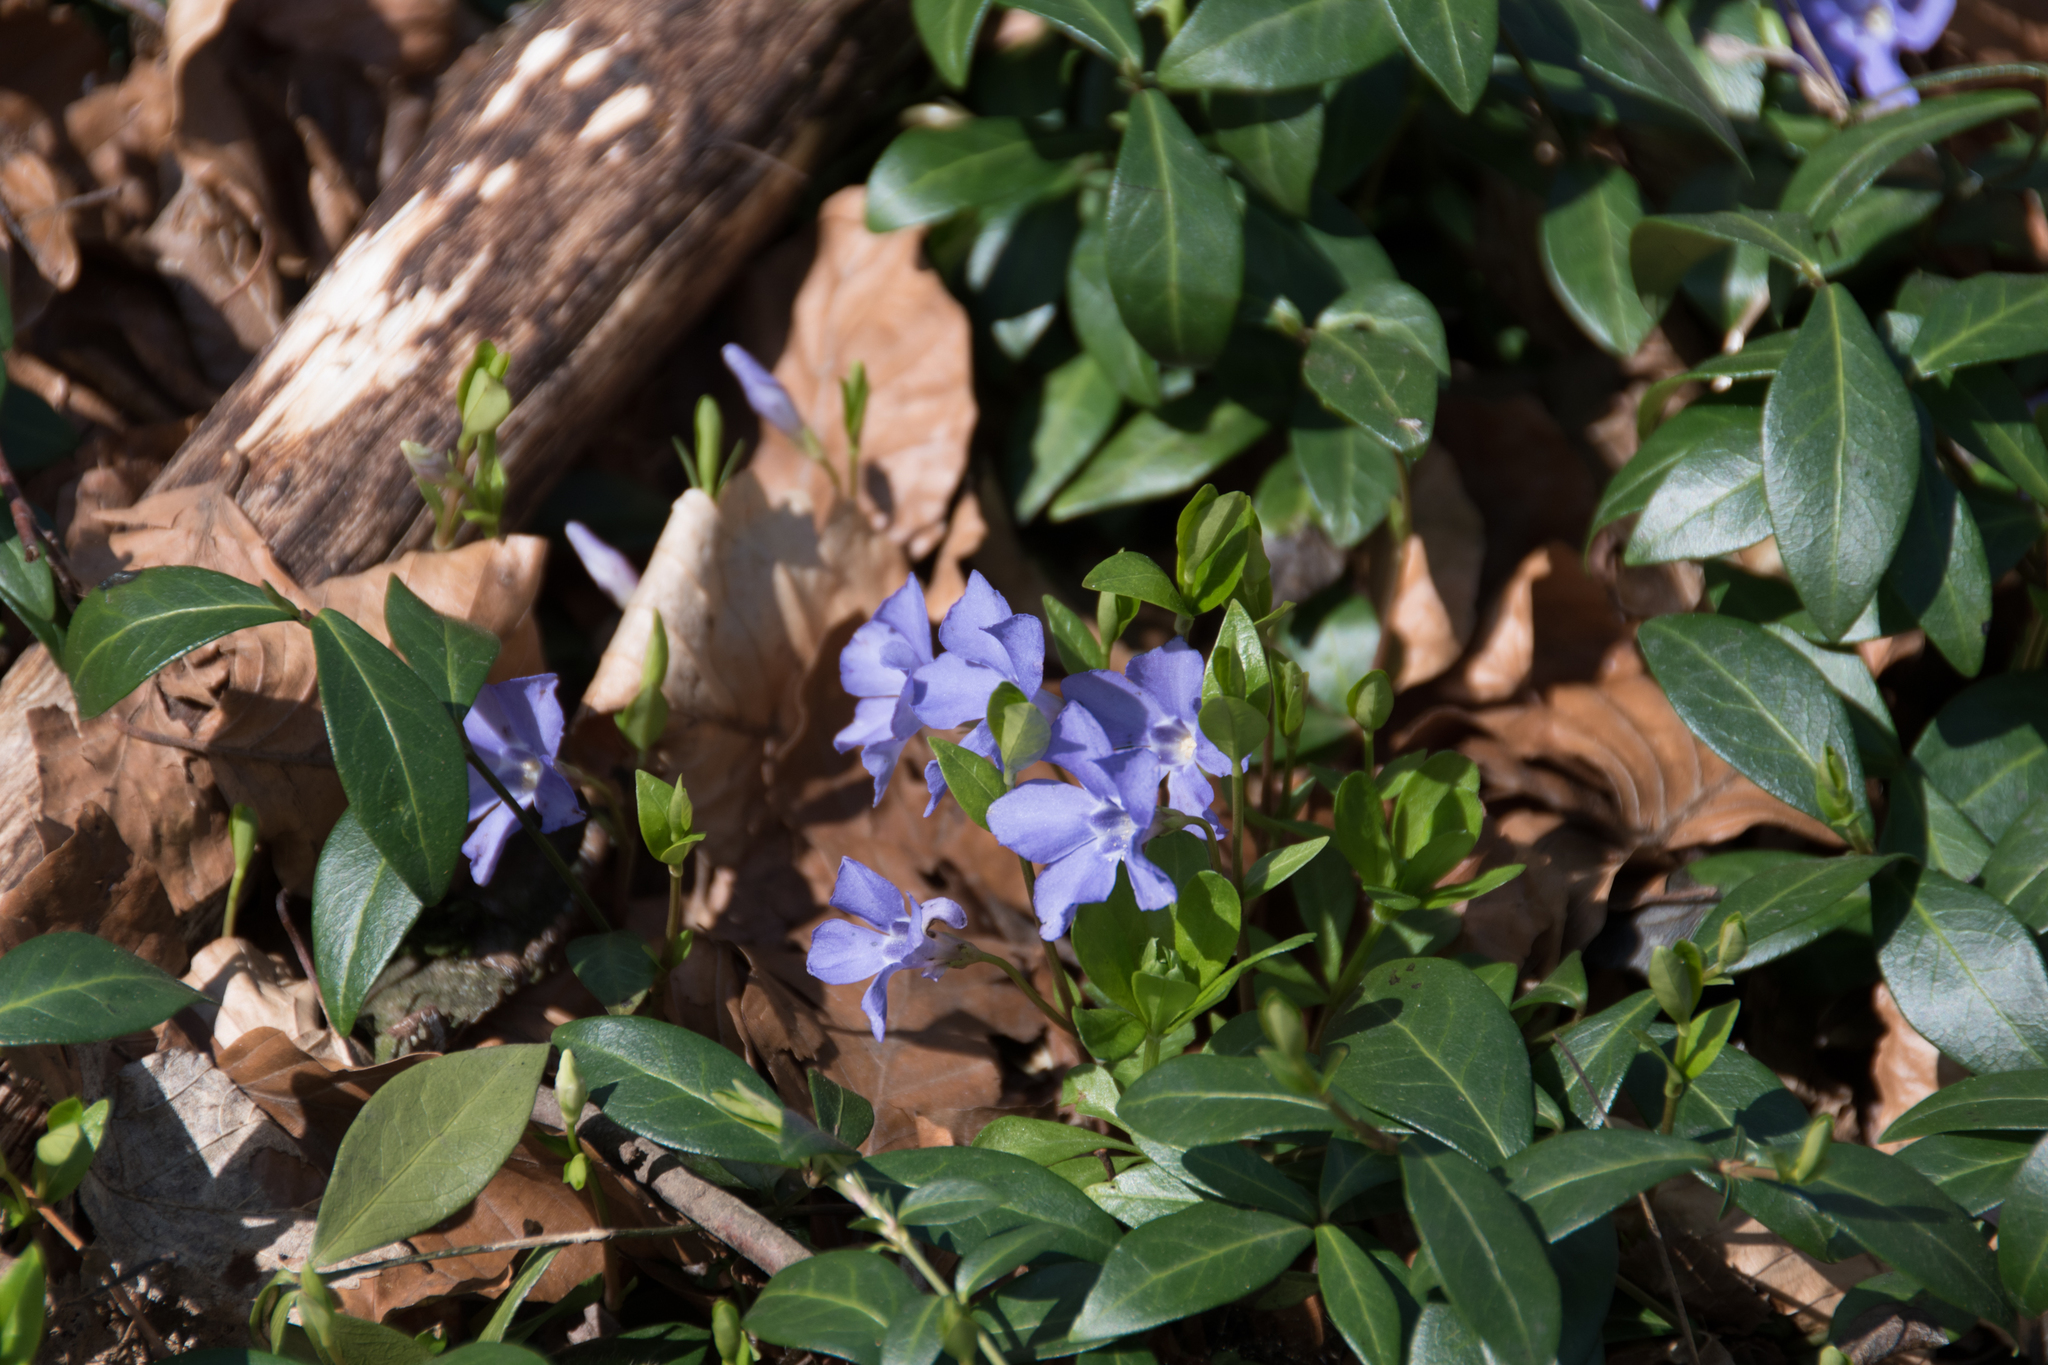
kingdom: Plantae
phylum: Tracheophyta
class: Magnoliopsida
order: Gentianales
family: Apocynaceae
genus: Vinca
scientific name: Vinca minor
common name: Lesser periwinkle
